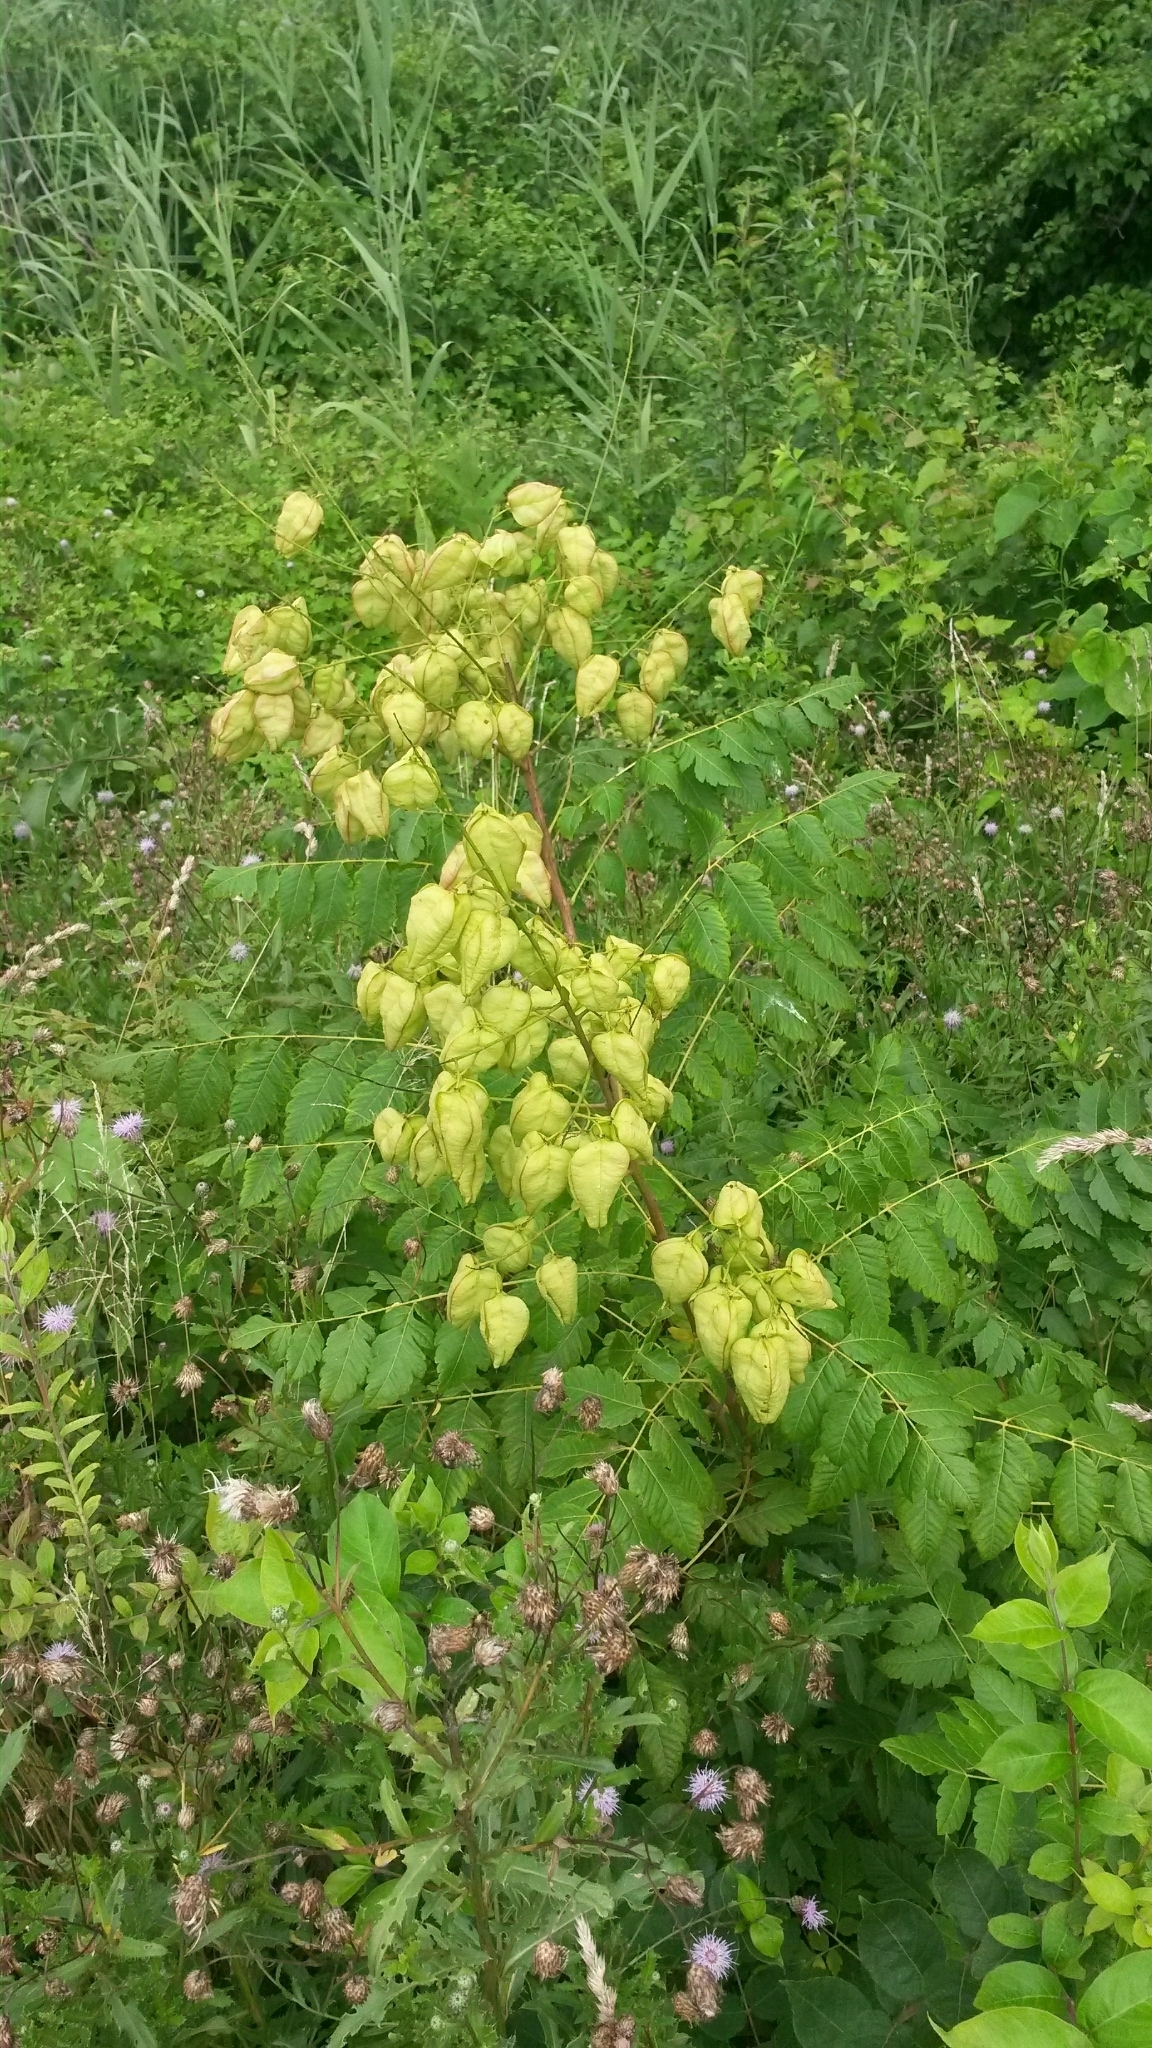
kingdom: Plantae
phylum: Tracheophyta
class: Magnoliopsida
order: Sapindales
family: Sapindaceae
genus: Koelreuteria
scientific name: Koelreuteria paniculata
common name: Pride-of-india
